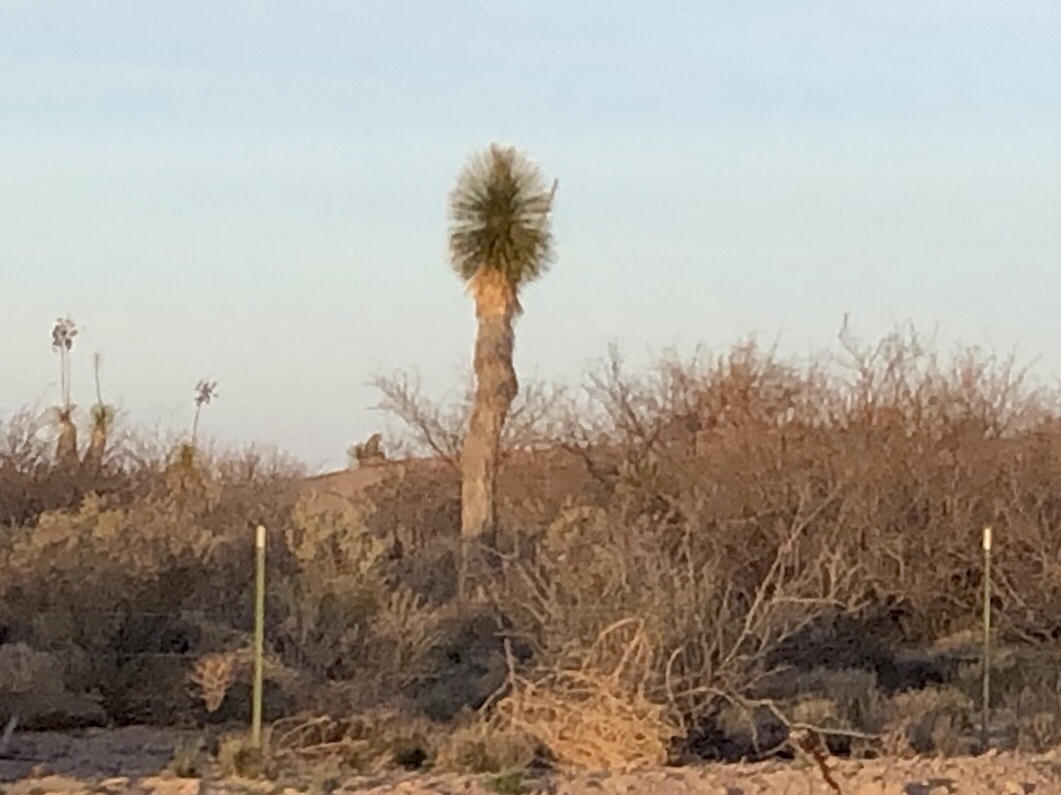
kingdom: Plantae
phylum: Tracheophyta
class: Liliopsida
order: Asparagales
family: Asparagaceae
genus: Yucca
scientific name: Yucca elata
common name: Palmella
